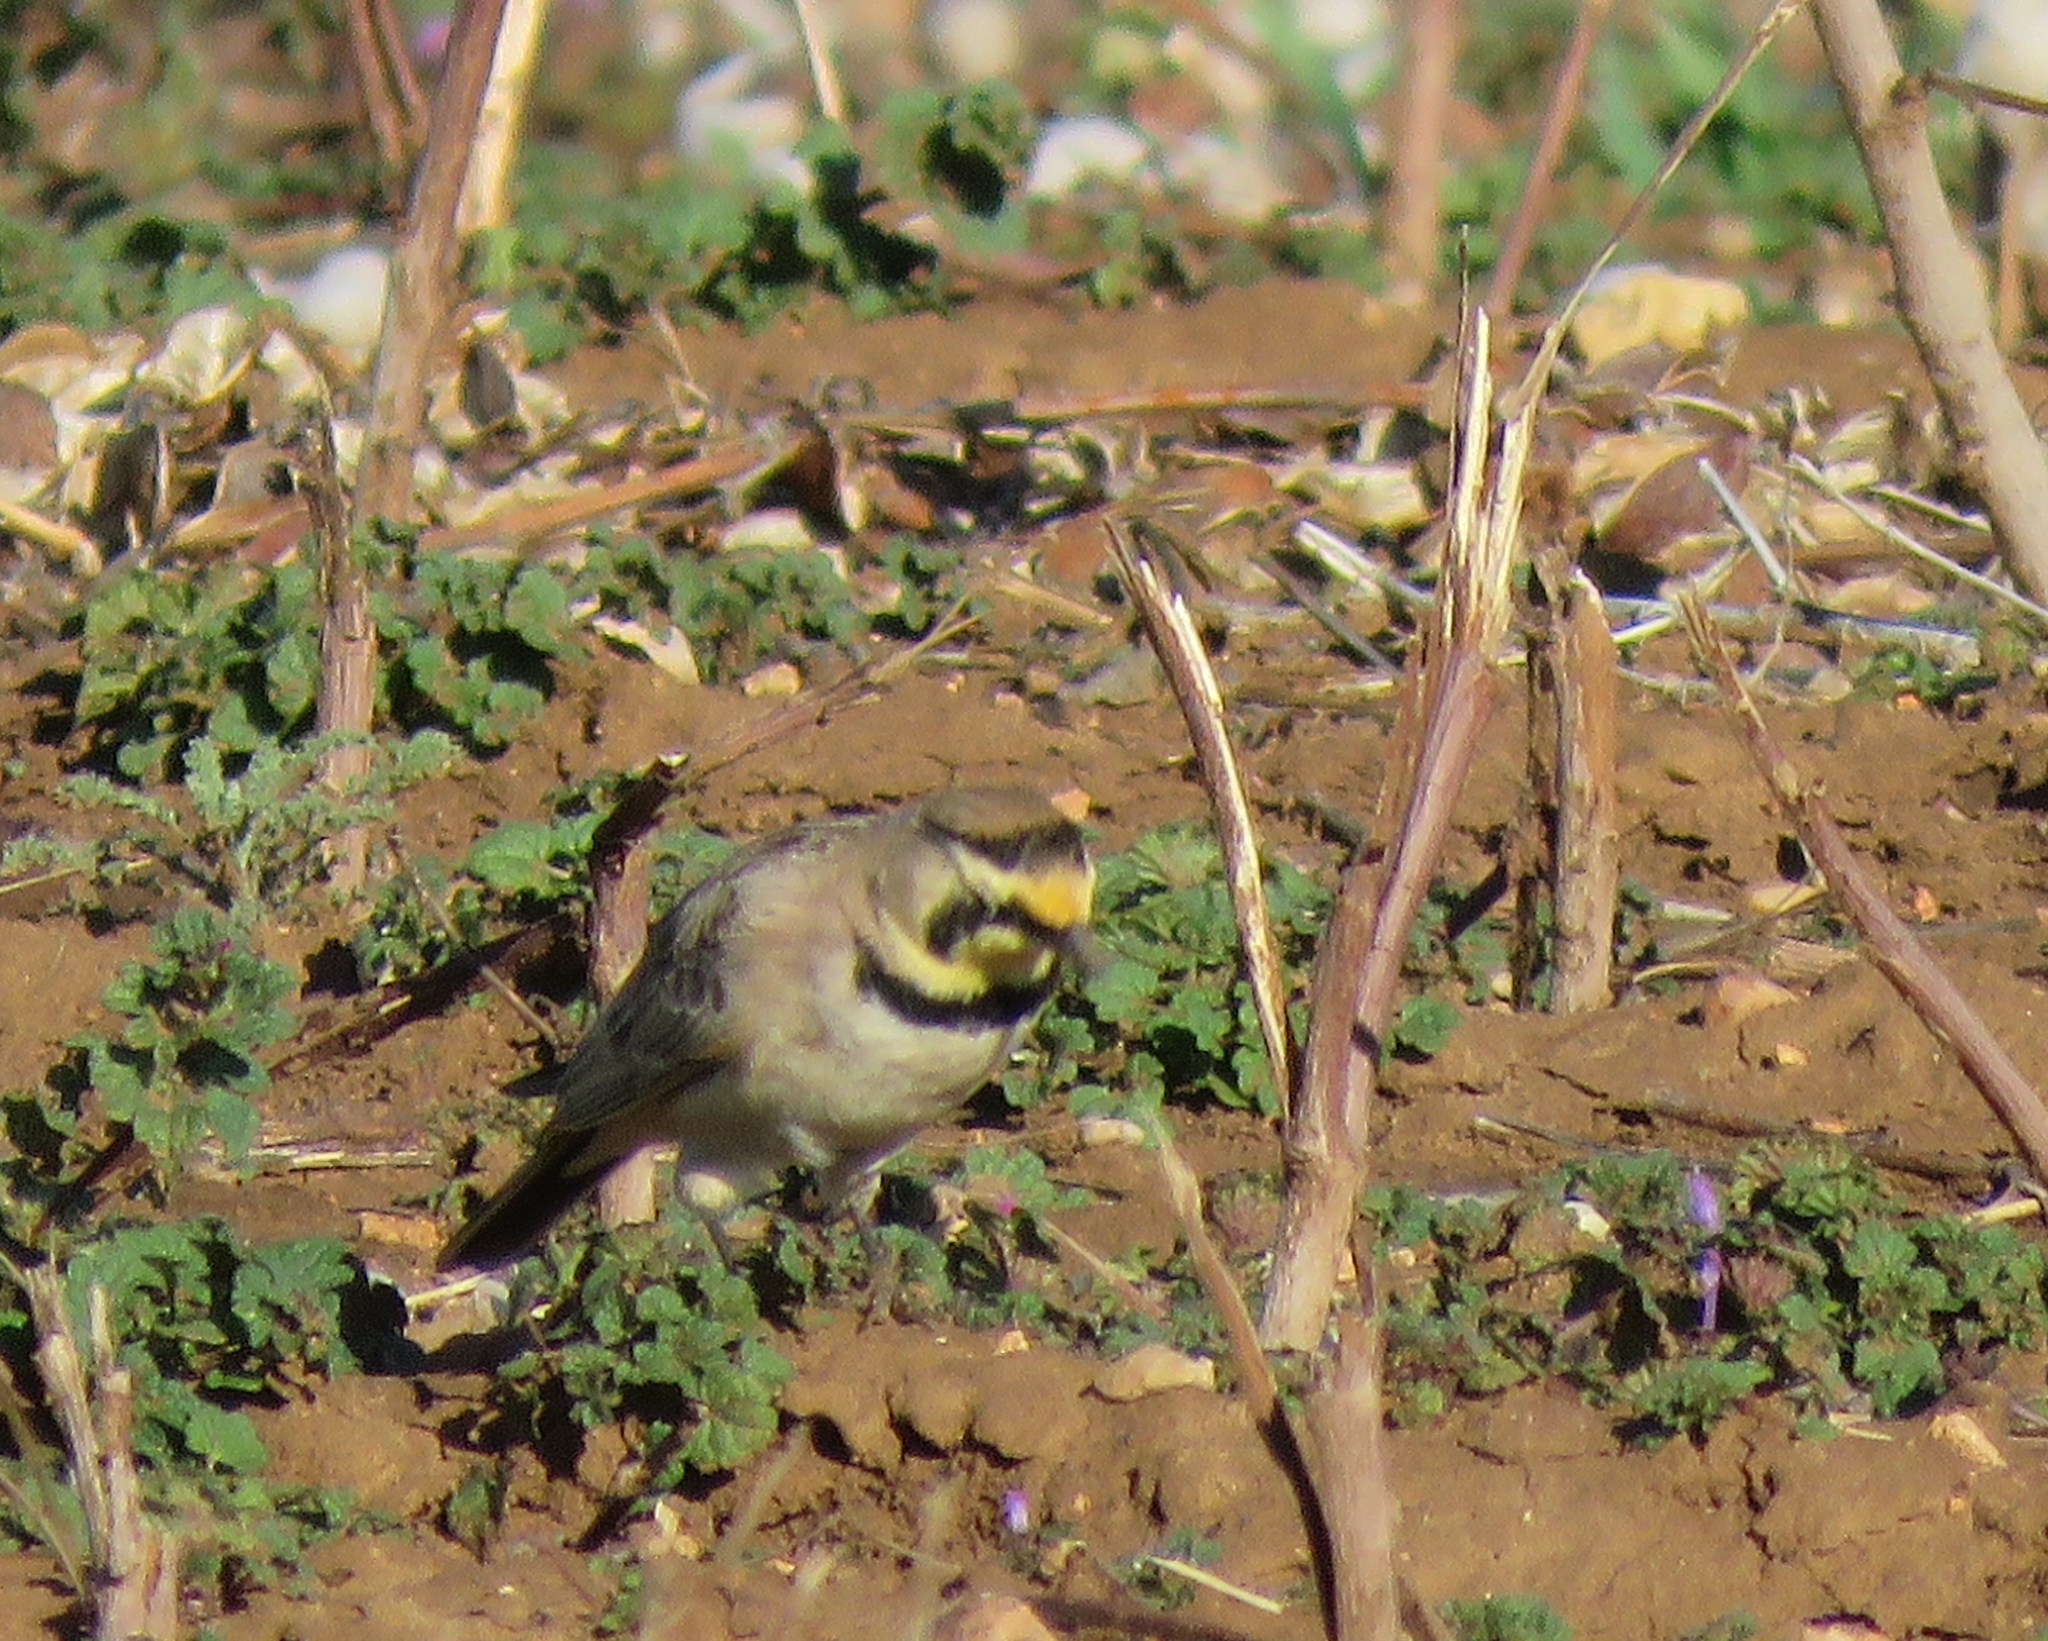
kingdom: Animalia
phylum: Chordata
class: Aves
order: Passeriformes
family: Alaudidae
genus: Eremophila
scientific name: Eremophila alpestris
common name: Horned lark
